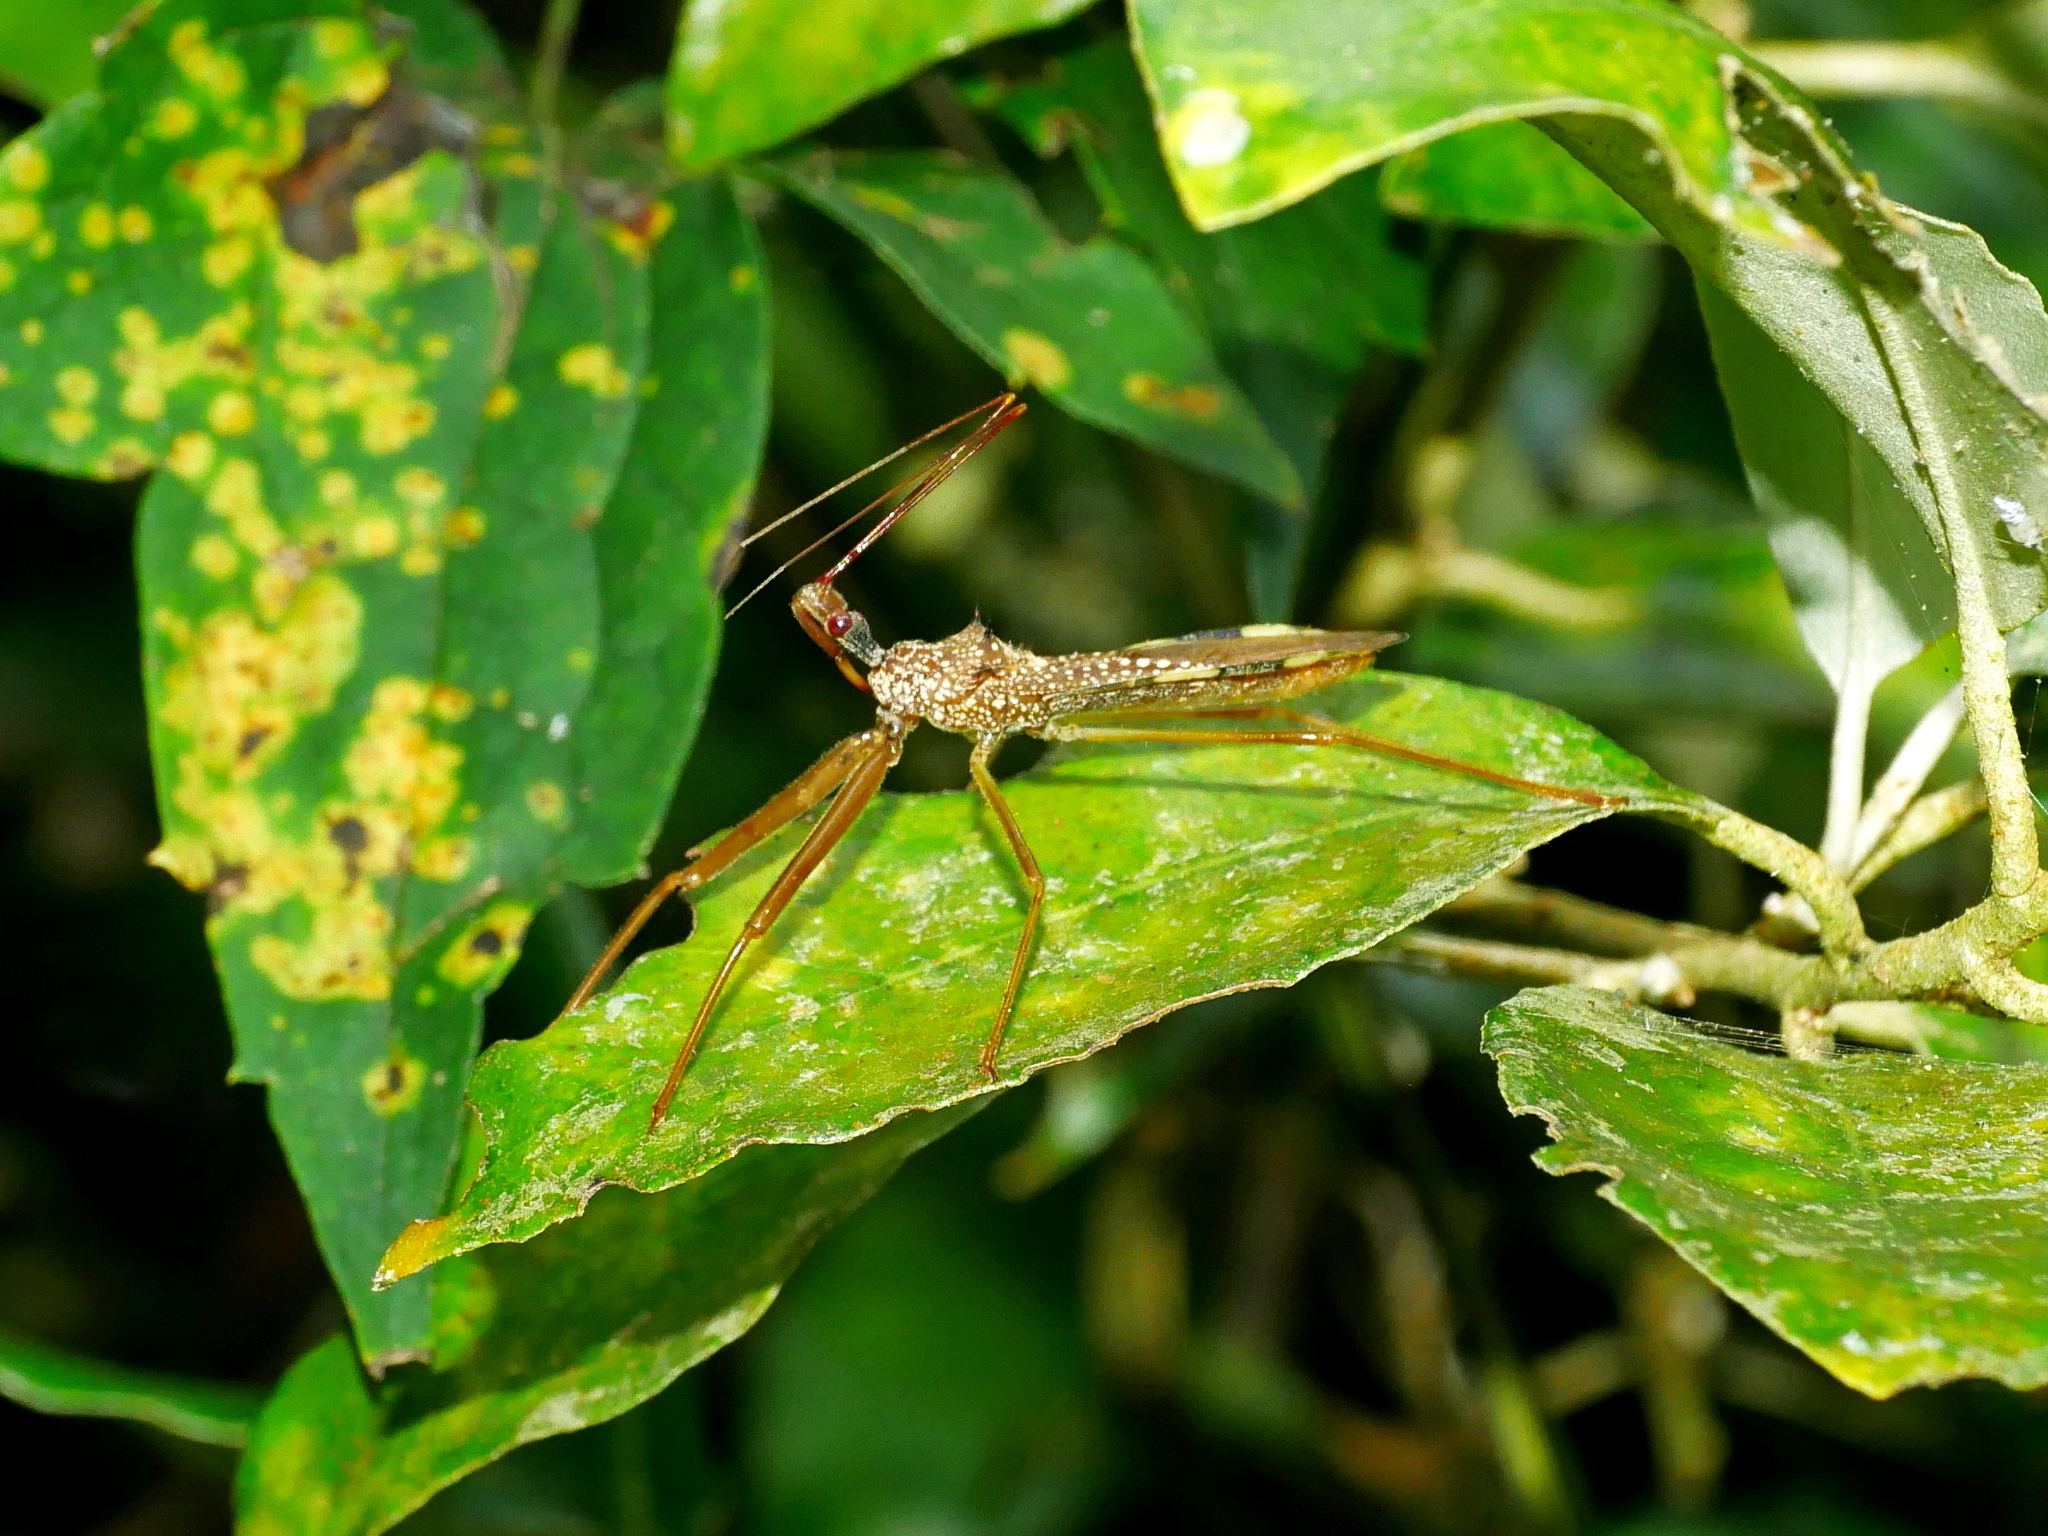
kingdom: Animalia
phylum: Arthropoda
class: Insecta
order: Hemiptera
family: Reduviidae
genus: Epidaus
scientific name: Epidaus sexspinus
